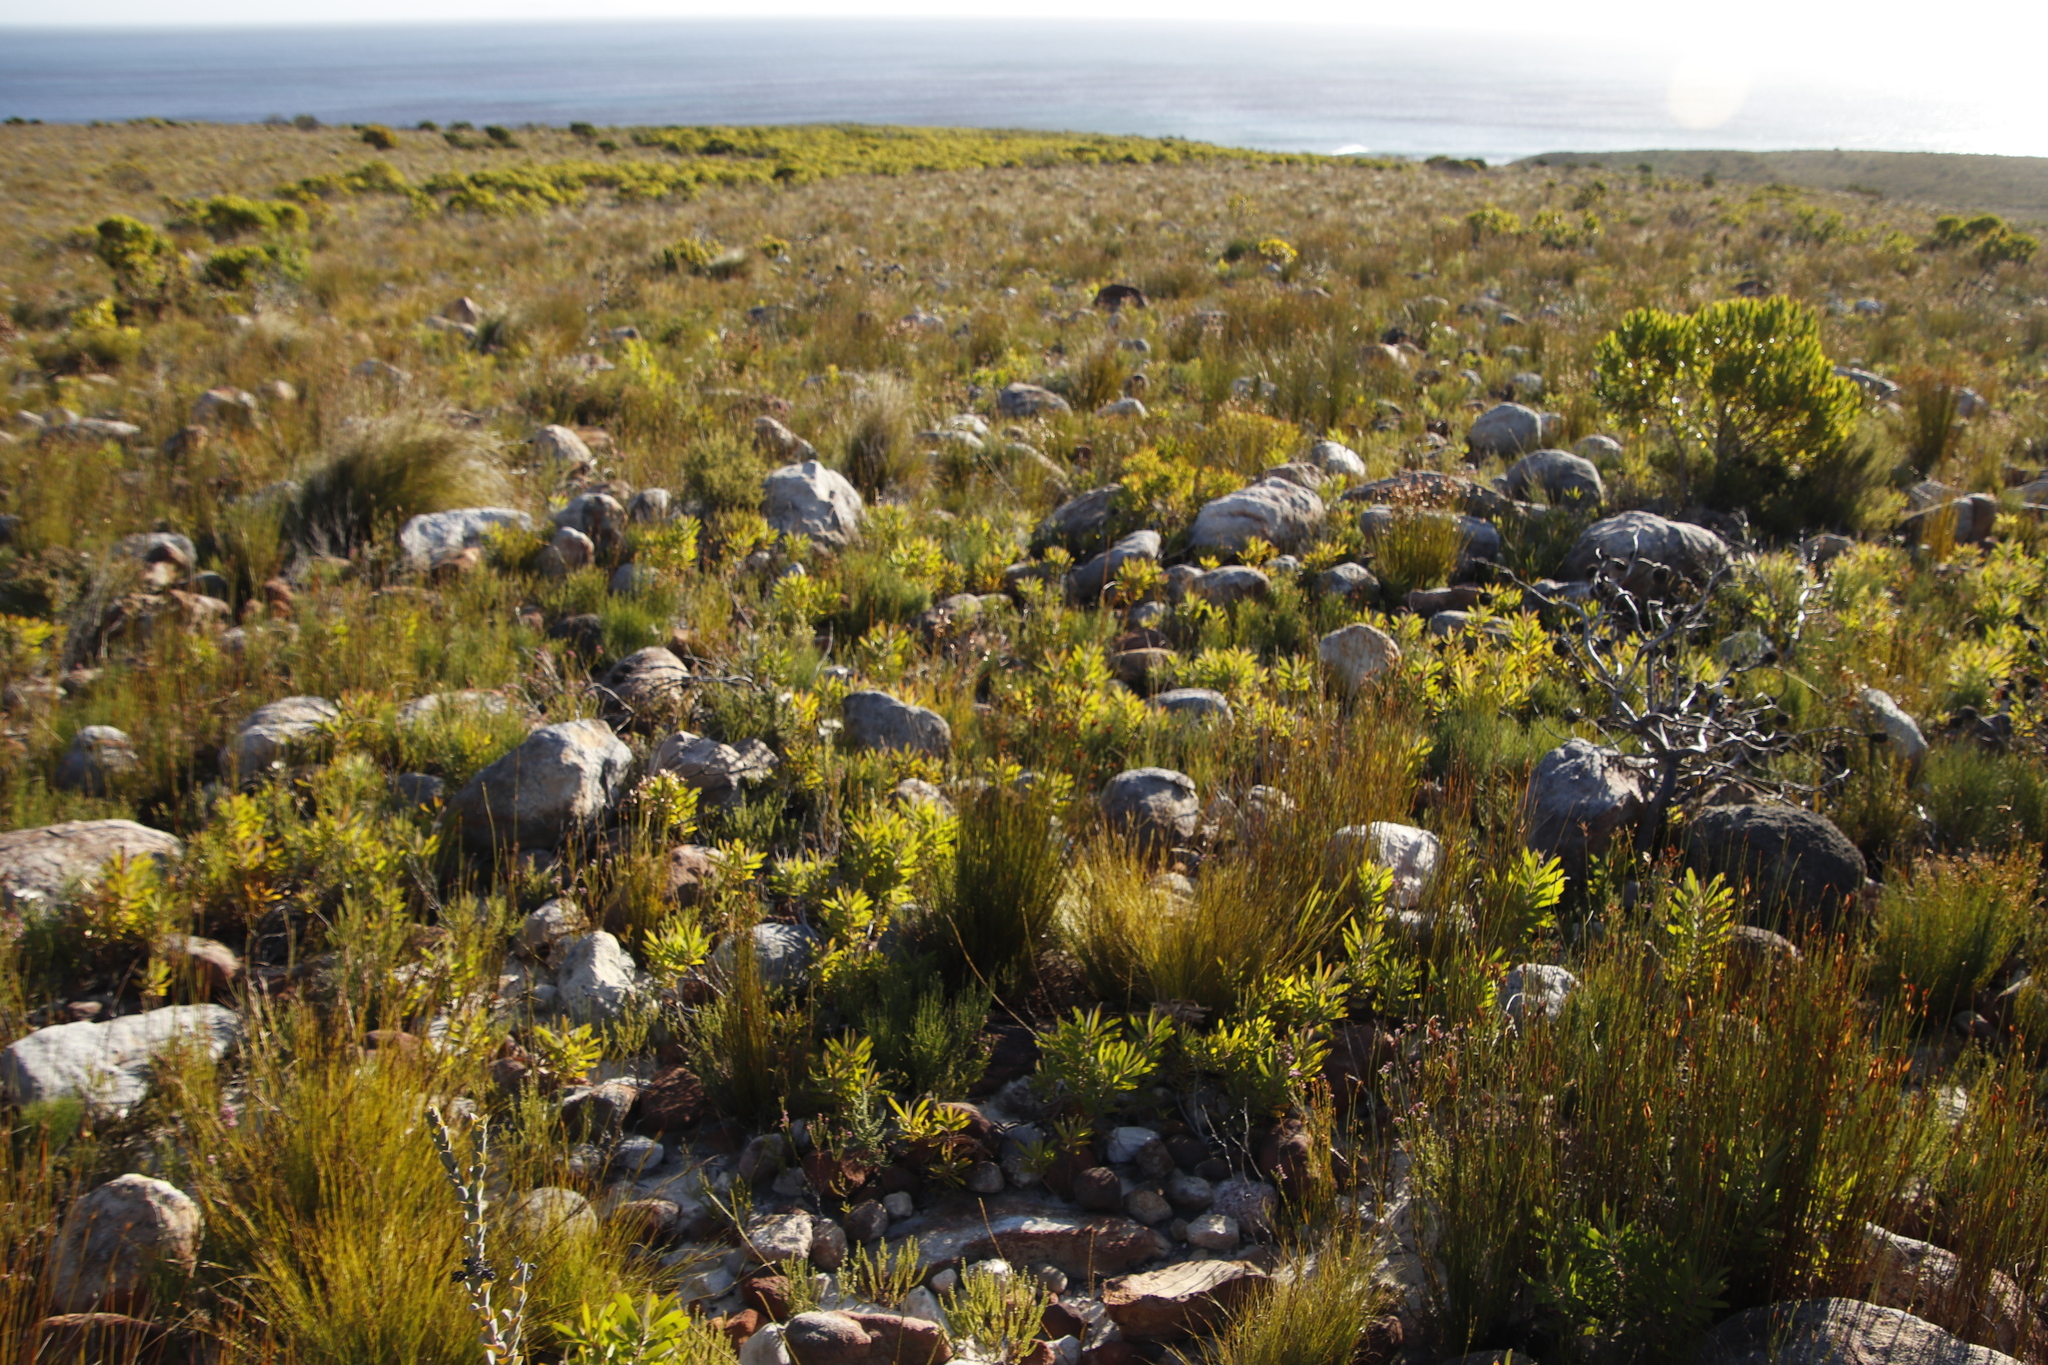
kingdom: Plantae
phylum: Tracheophyta
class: Magnoliopsida
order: Proteales
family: Proteaceae
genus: Leucadendron
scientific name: Leucadendron laureolum
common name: Golden sunshinebush
